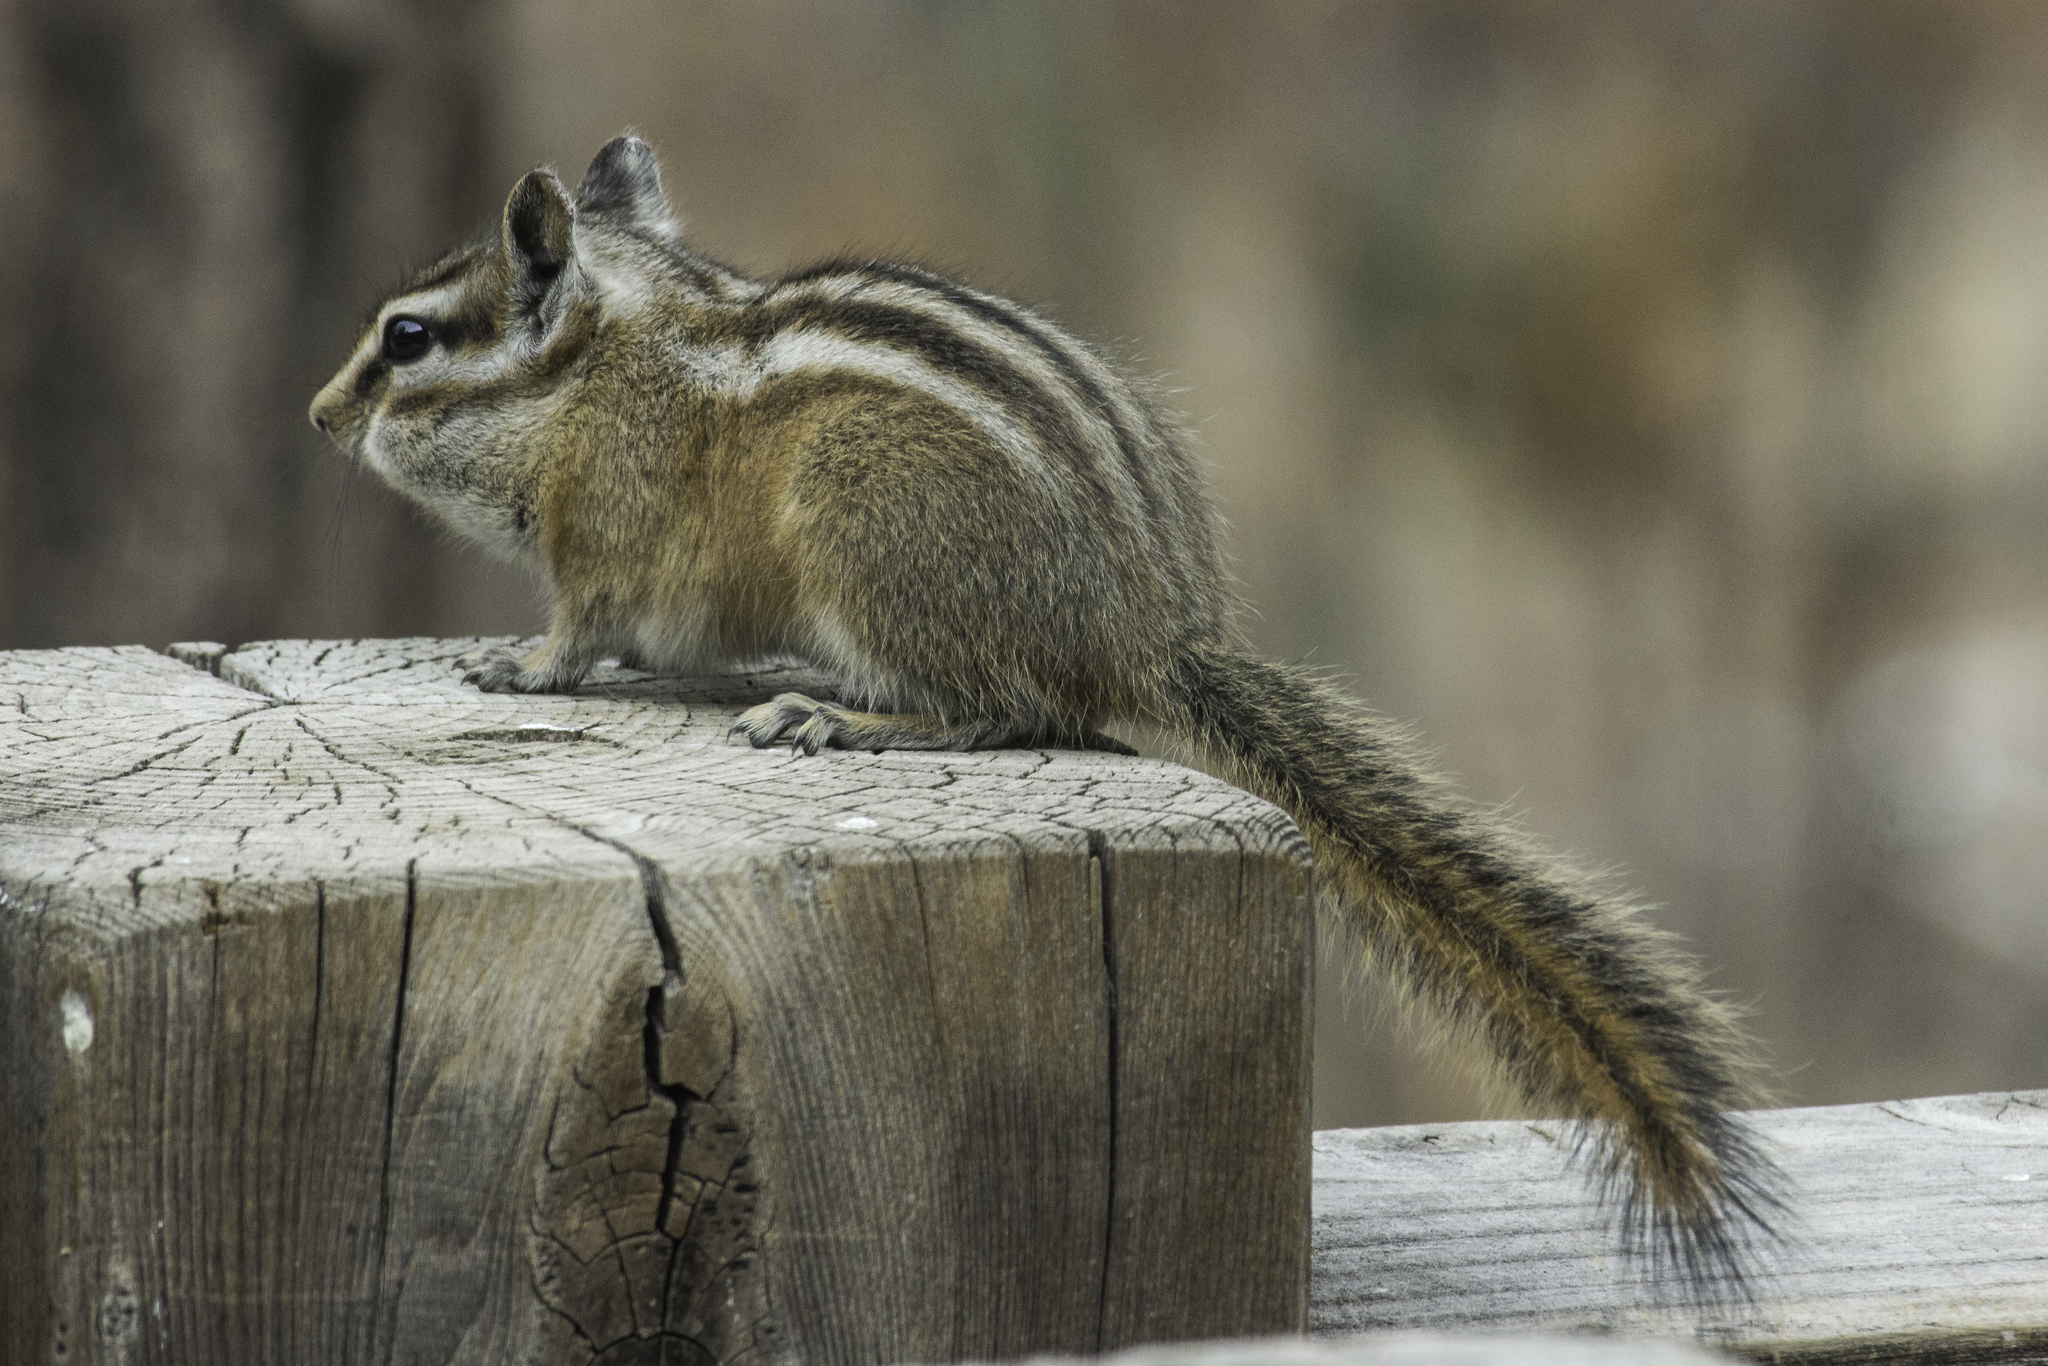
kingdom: Animalia
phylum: Chordata
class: Mammalia
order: Rodentia
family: Sciuridae
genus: Tamias
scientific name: Tamias minimus
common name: Least chipmunk
